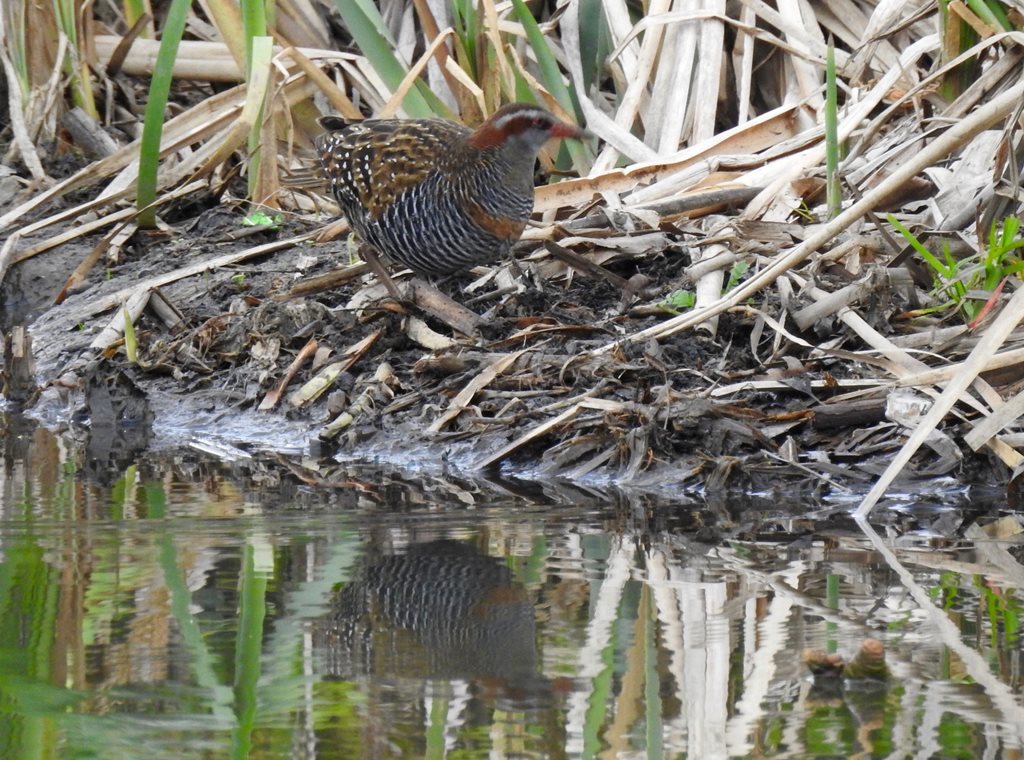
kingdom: Animalia
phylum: Chordata
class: Aves
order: Gruiformes
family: Rallidae
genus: Gallirallus
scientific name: Gallirallus philippensis
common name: Buff-banded rail
